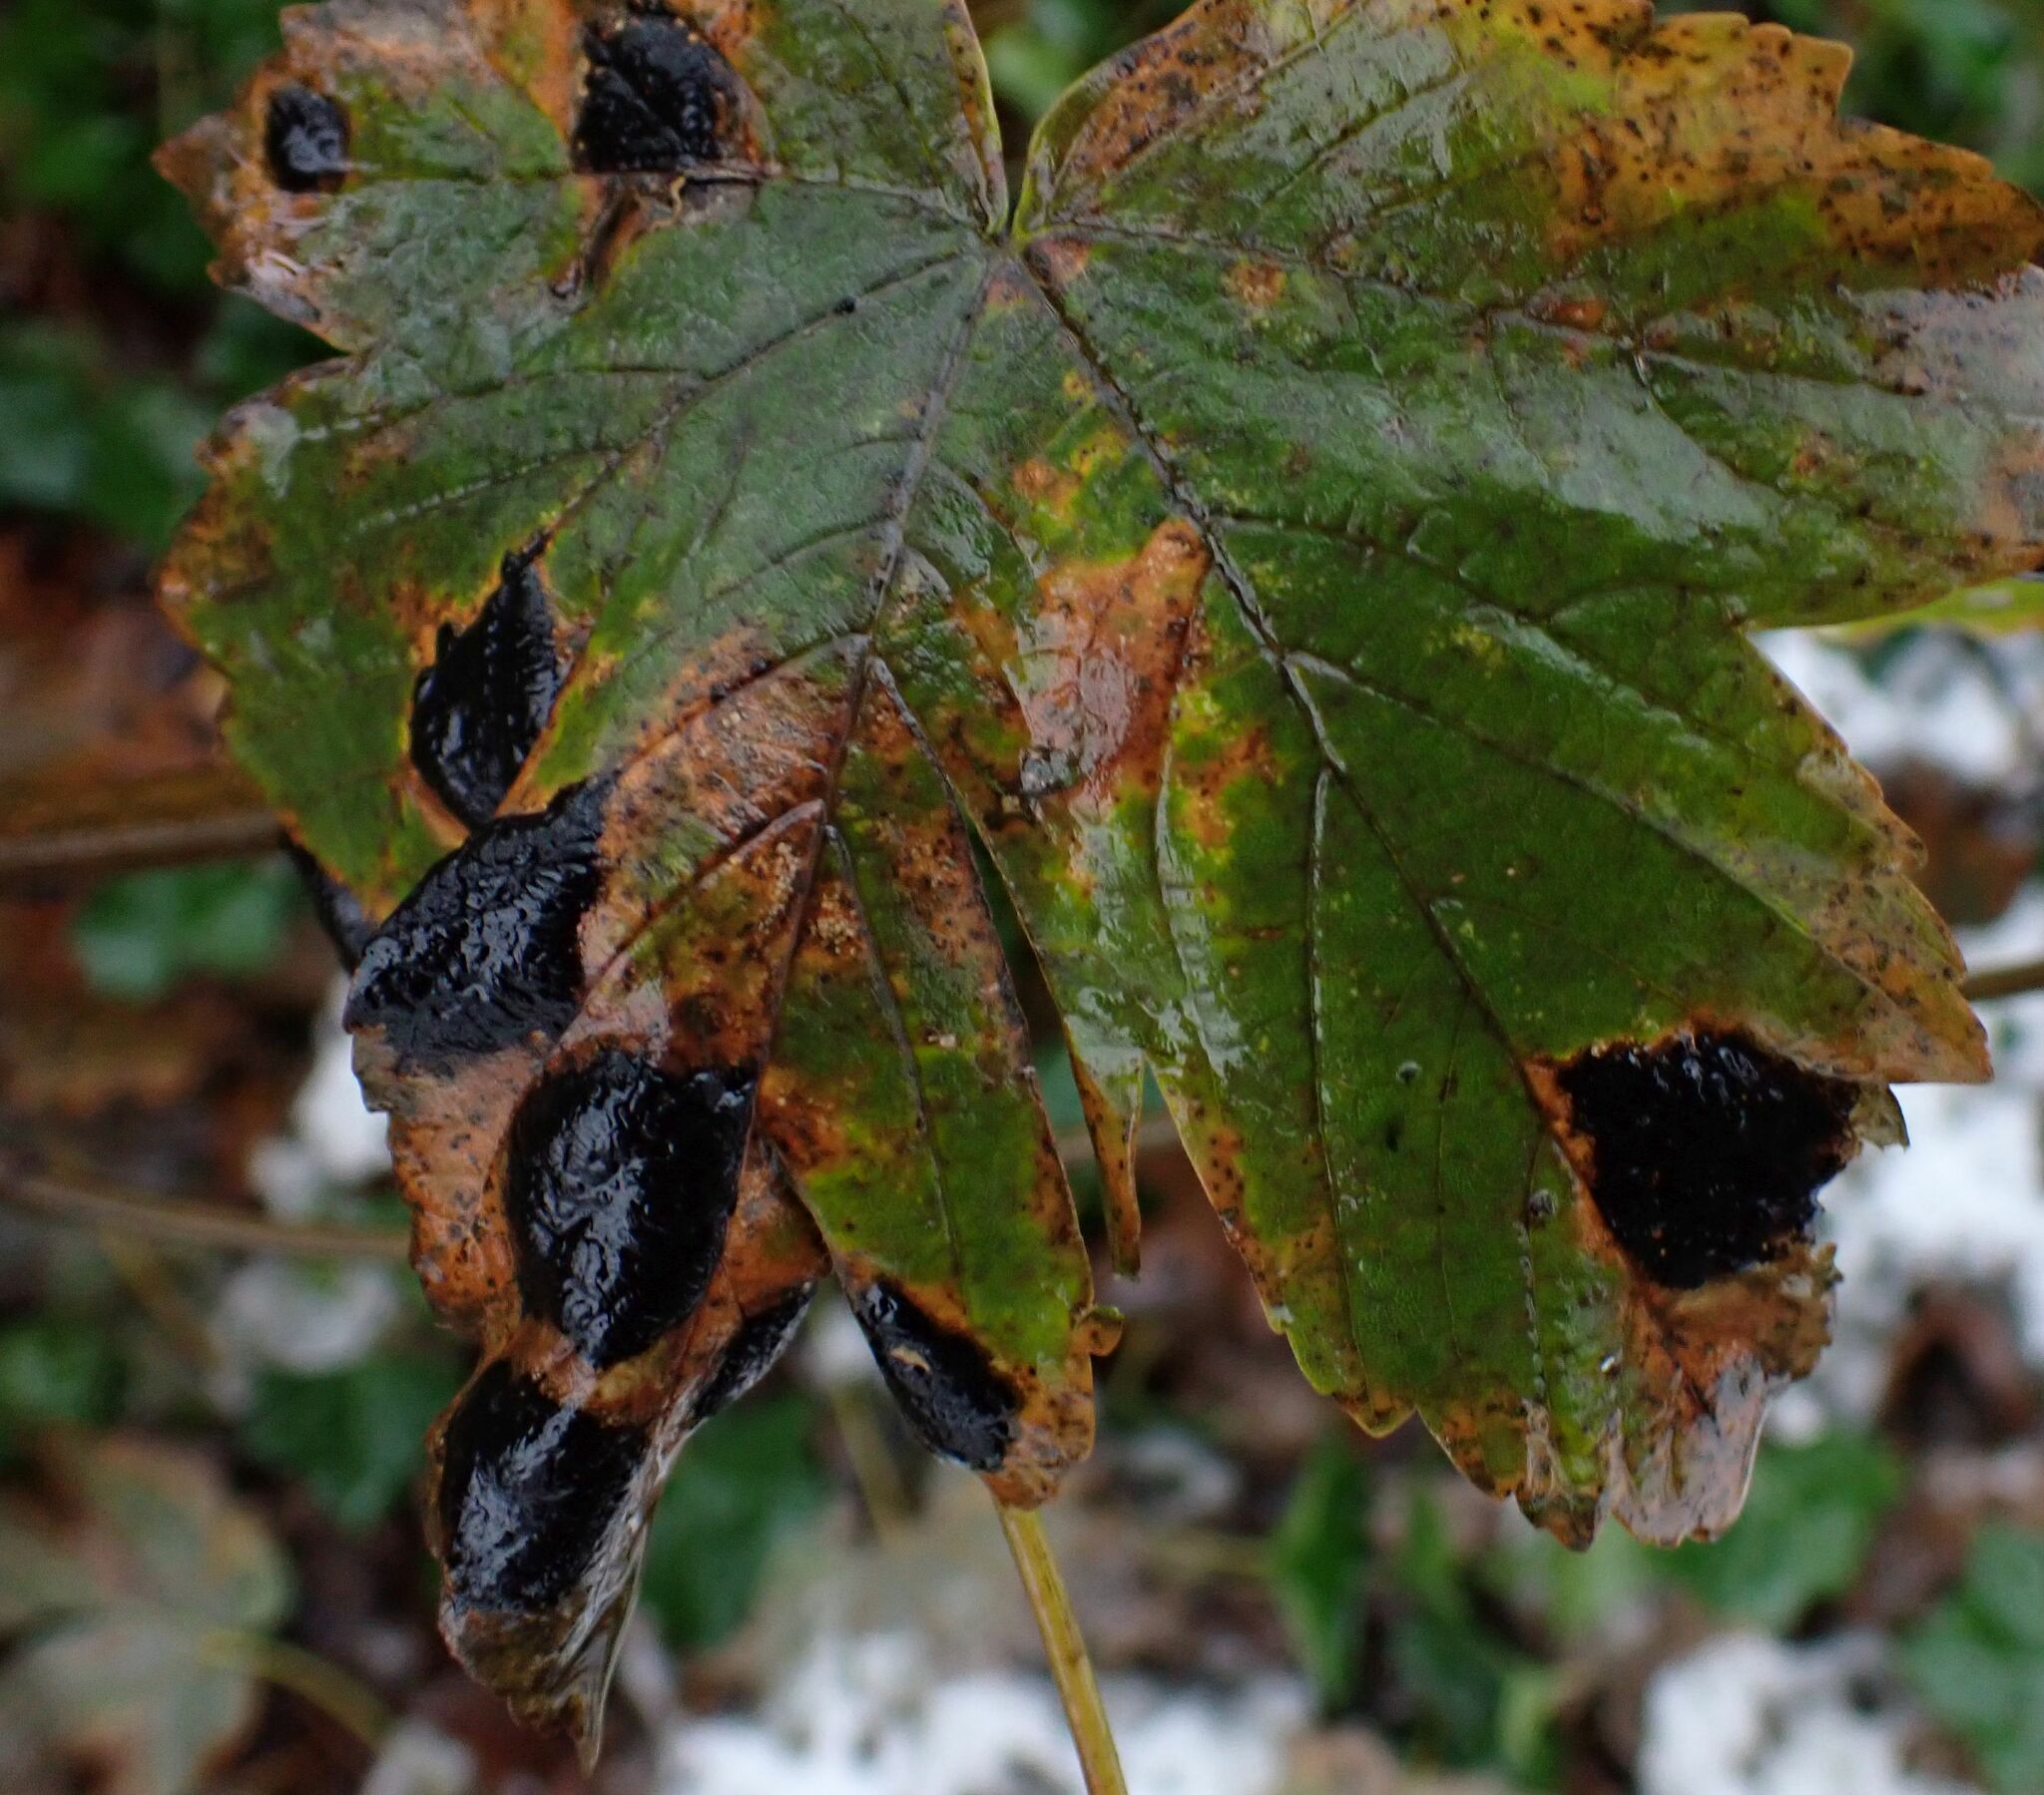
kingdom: Fungi
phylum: Ascomycota
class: Leotiomycetes
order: Rhytismatales
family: Rhytismataceae
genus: Rhytisma
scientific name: Rhytisma acerinum
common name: European tar spot
